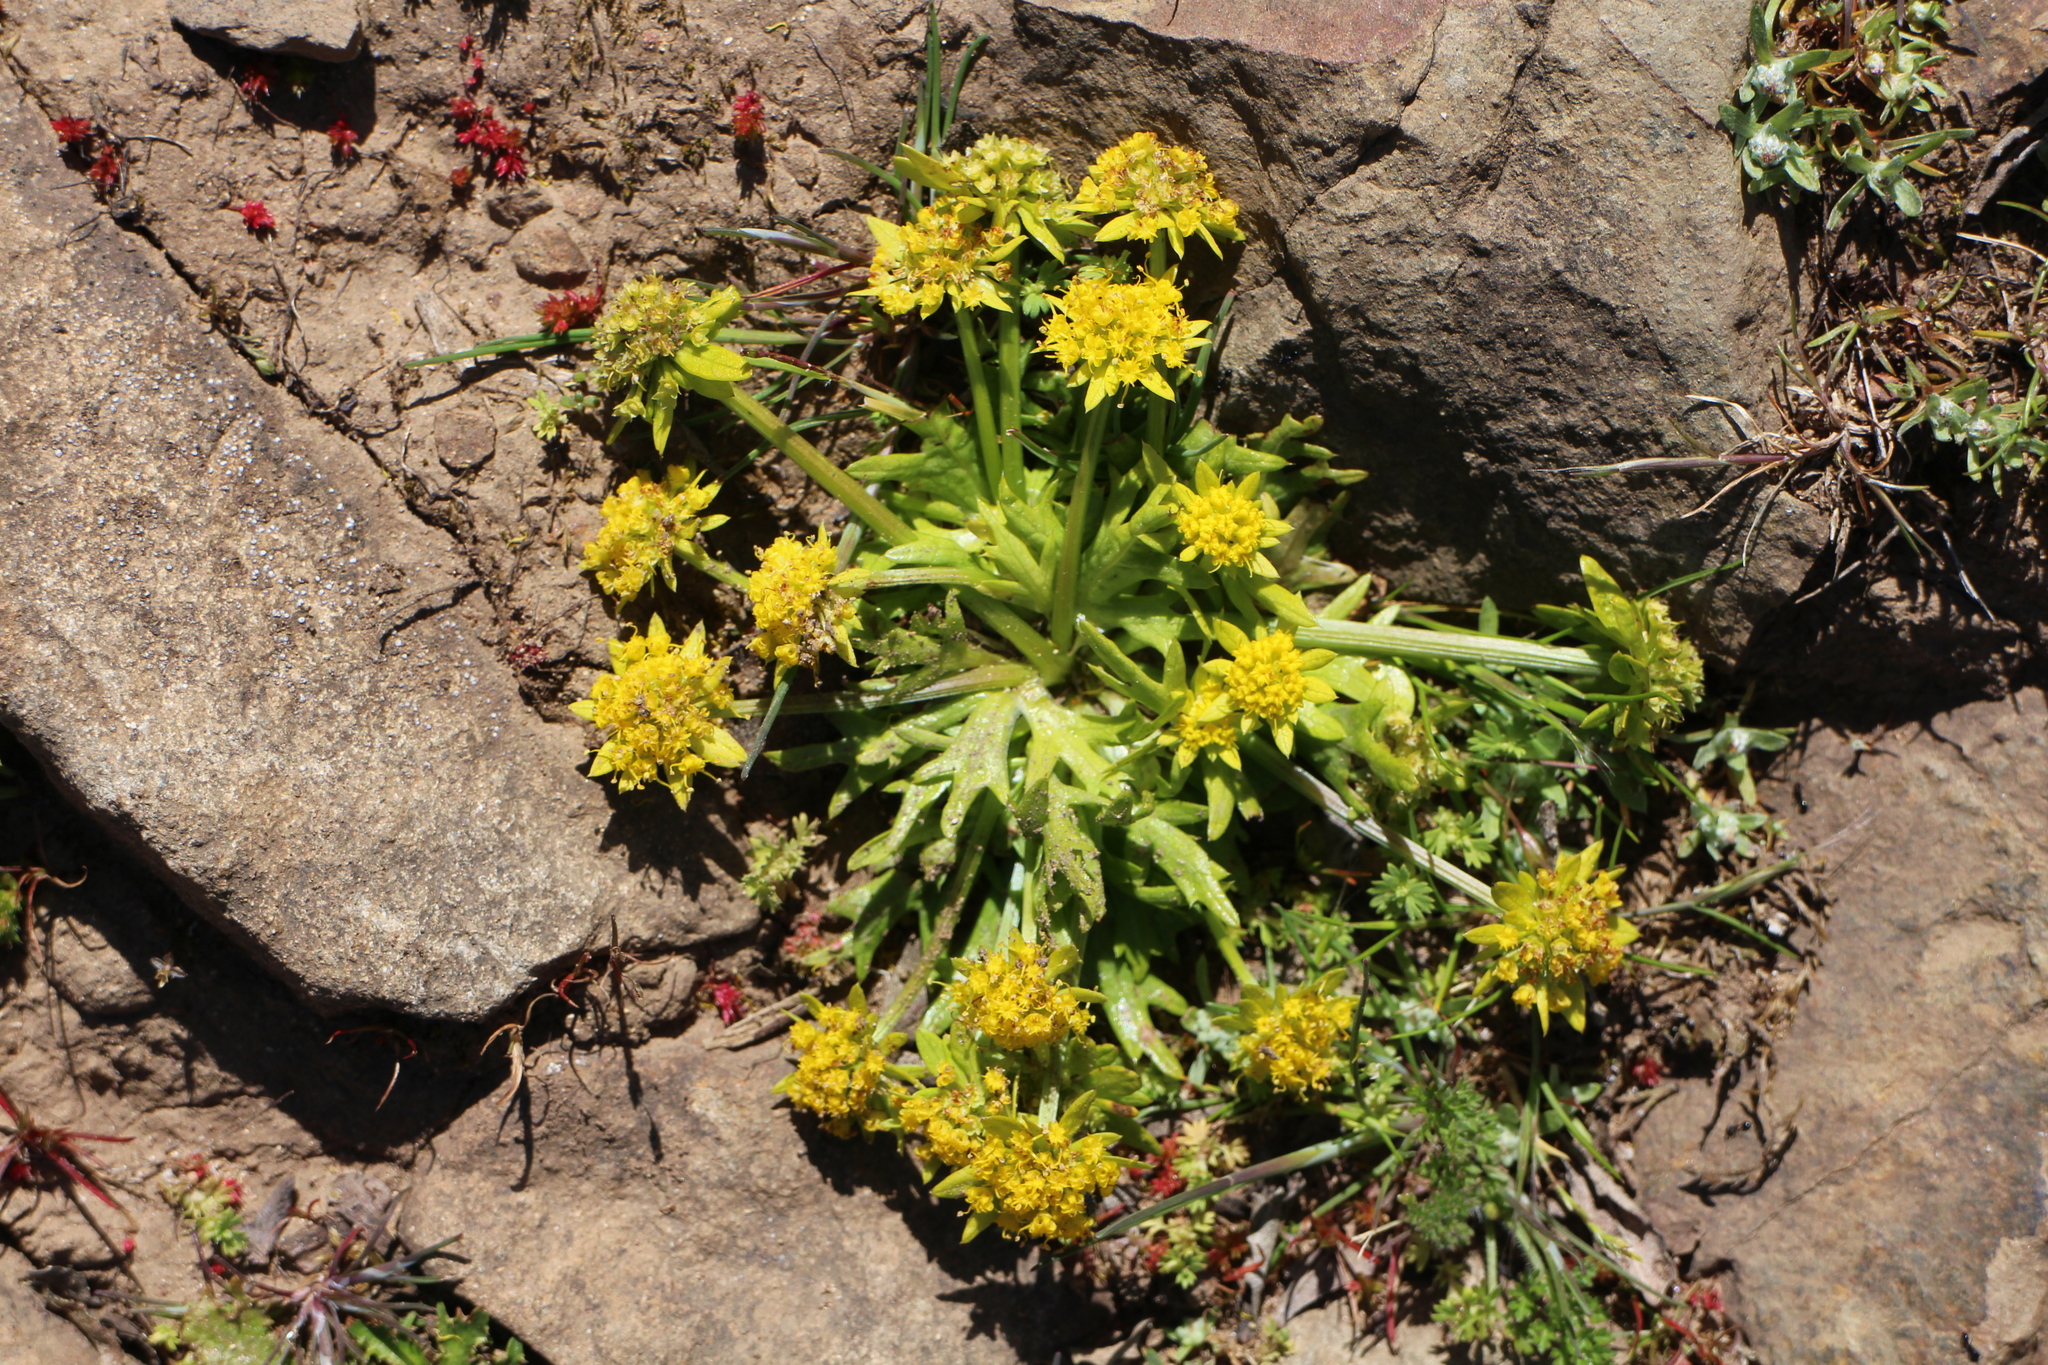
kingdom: Plantae
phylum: Tracheophyta
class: Magnoliopsida
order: Apiales
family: Apiaceae
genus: Sanicula
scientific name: Sanicula arctopoides
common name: Footsteps-of-spring
